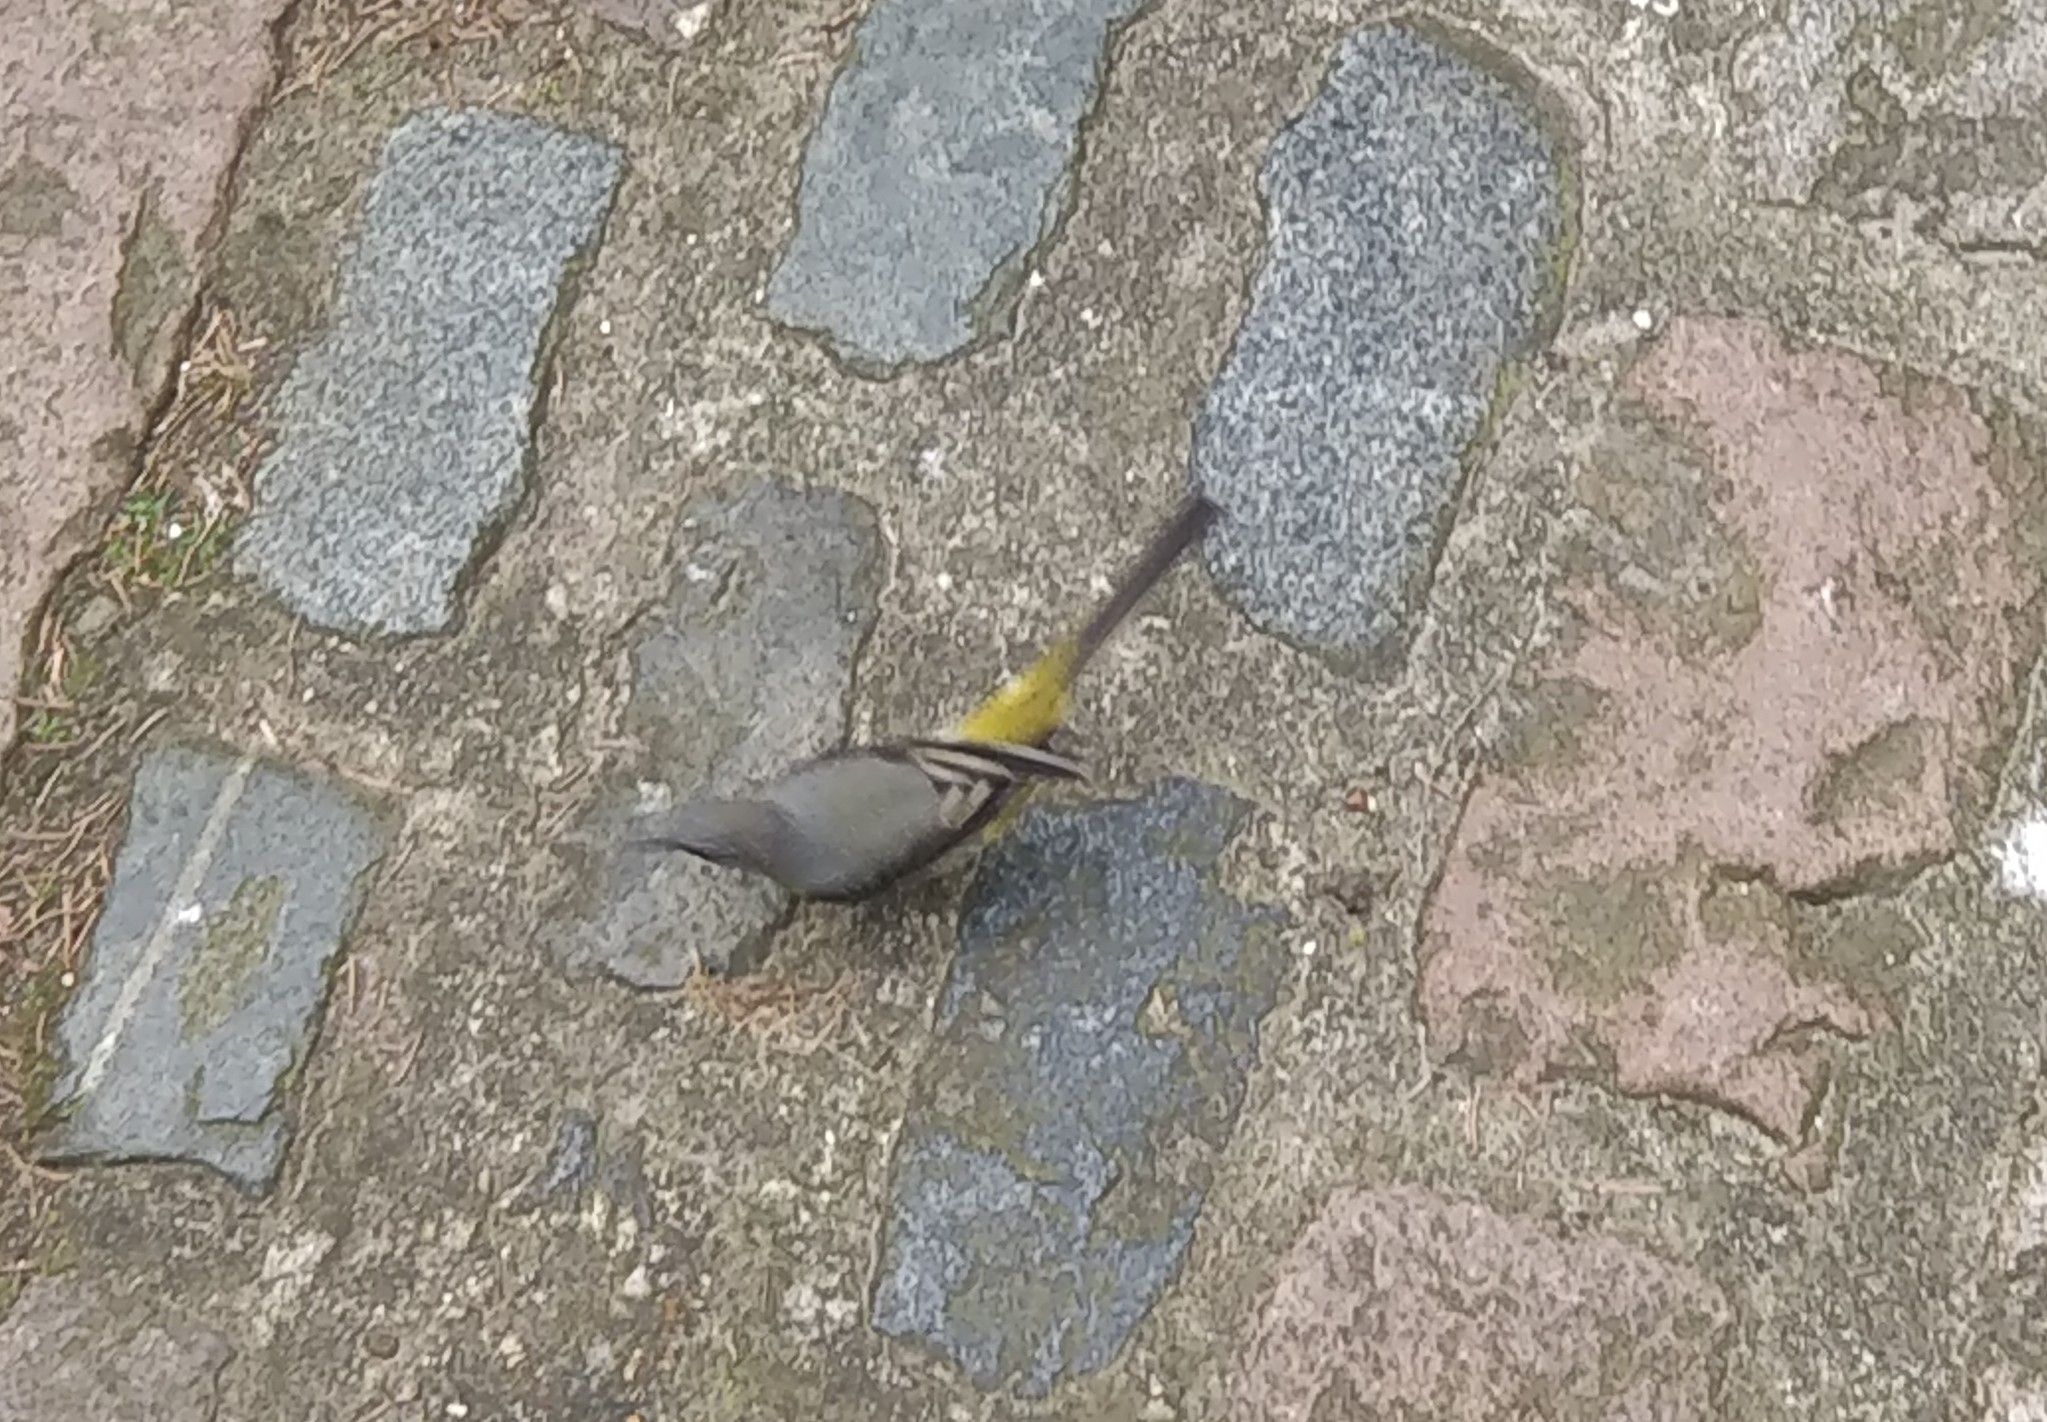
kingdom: Animalia
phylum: Chordata
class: Aves
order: Passeriformes
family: Motacillidae
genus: Motacilla
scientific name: Motacilla cinerea
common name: Grey wagtail
